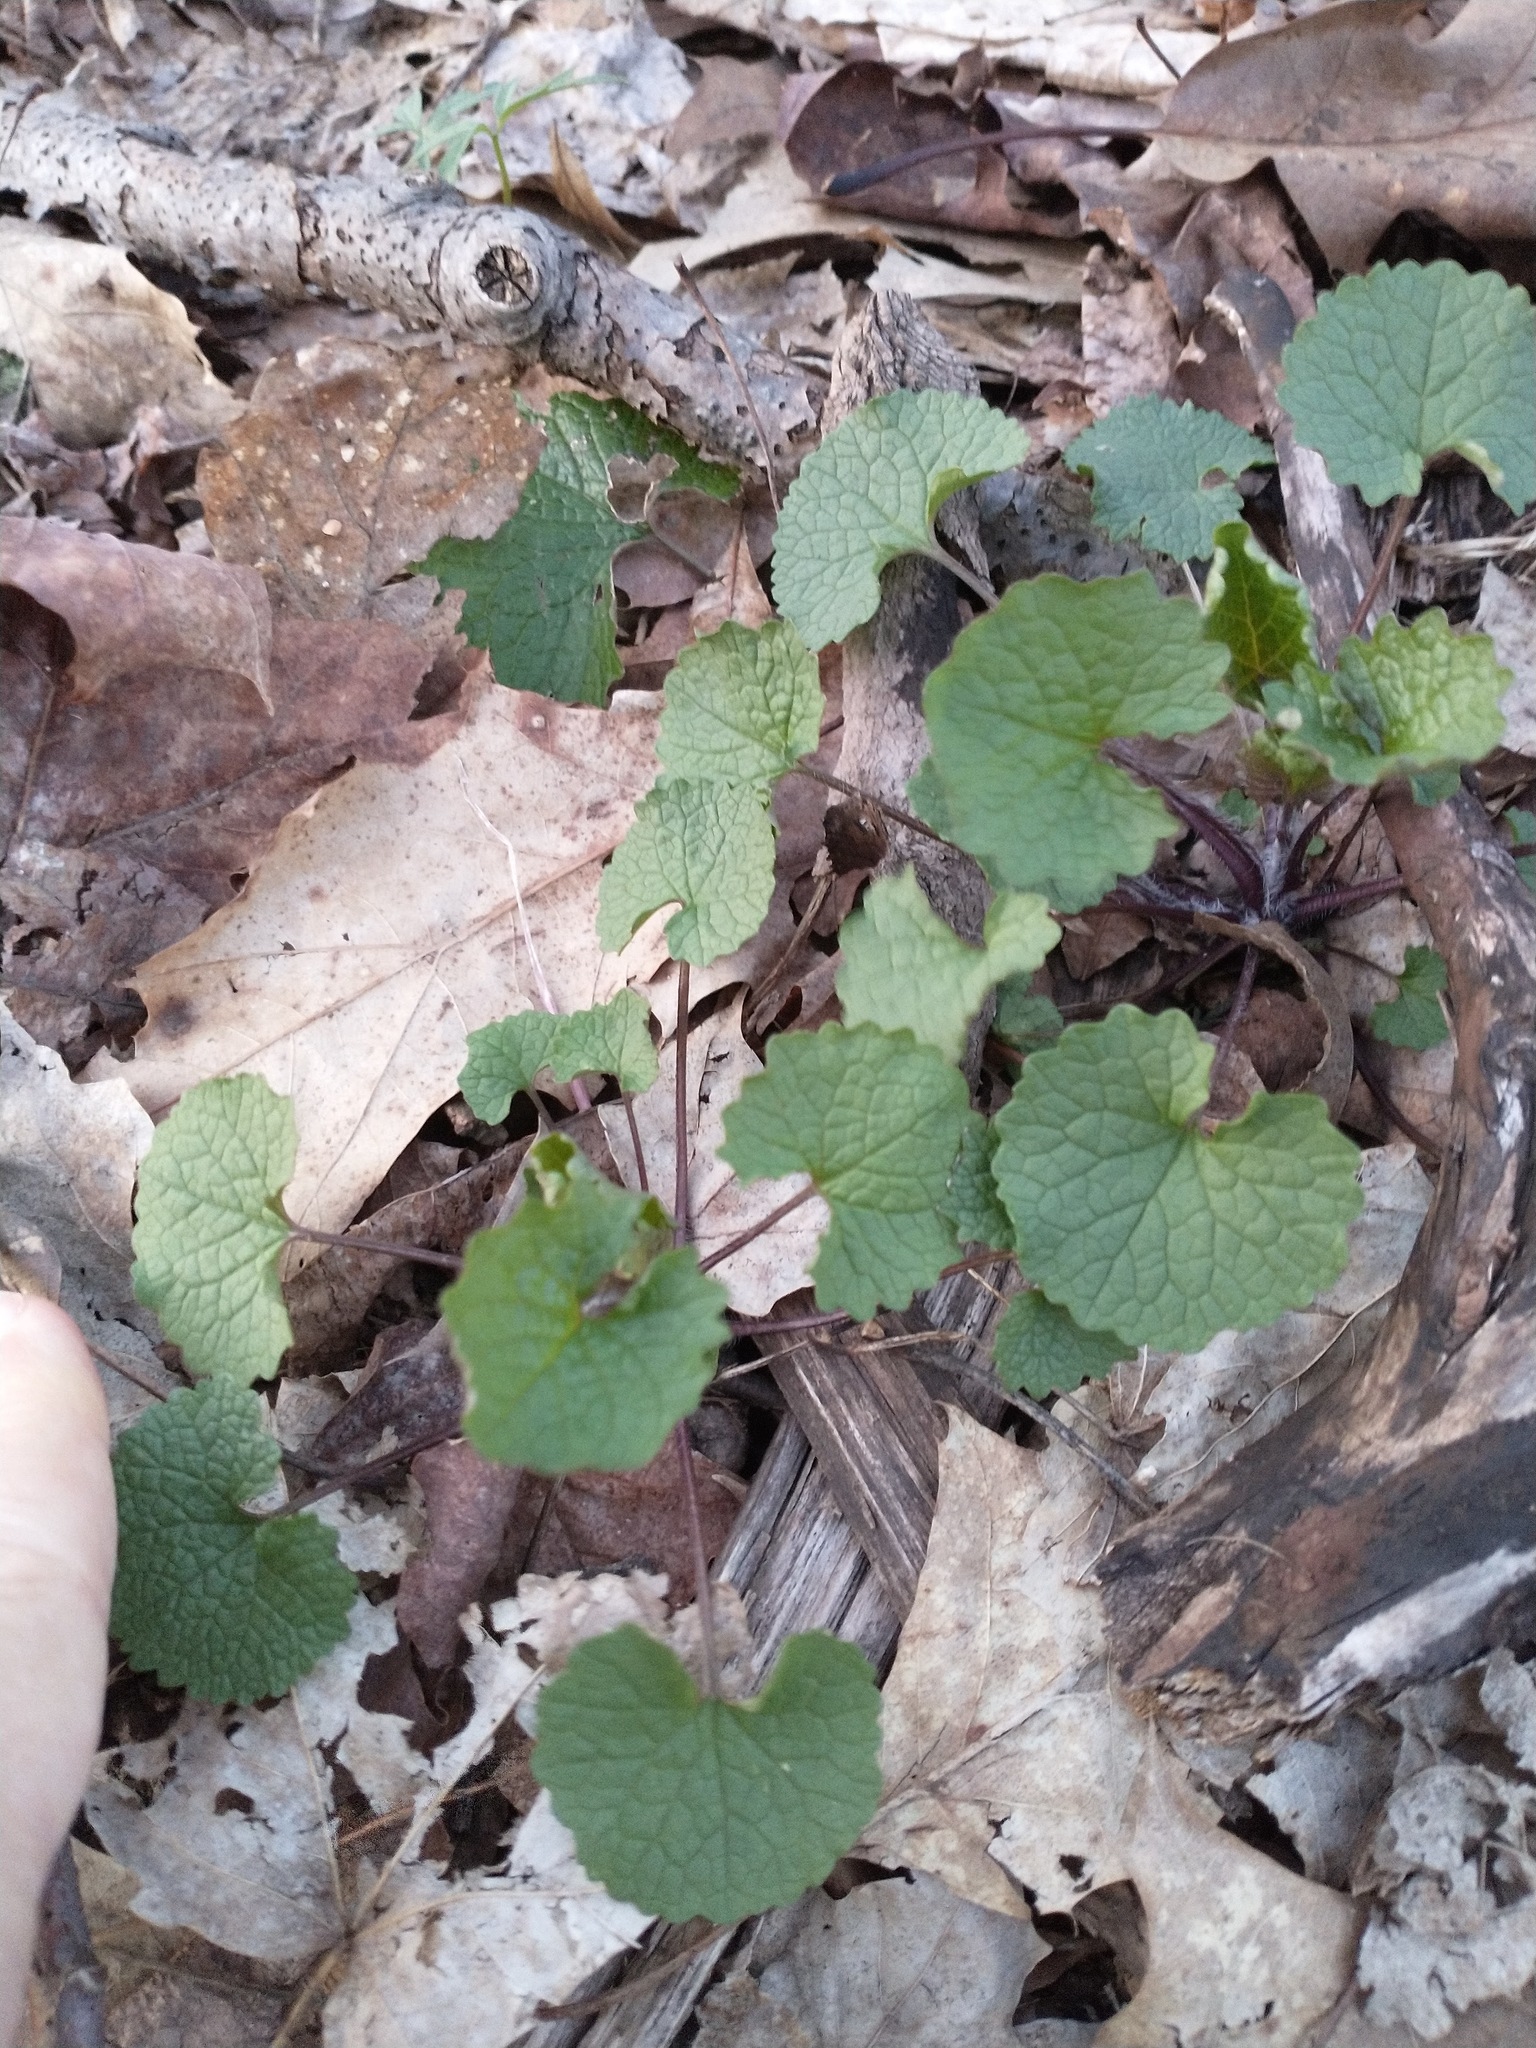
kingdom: Plantae
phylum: Tracheophyta
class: Magnoliopsida
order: Brassicales
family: Brassicaceae
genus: Alliaria
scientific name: Alliaria petiolata
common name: Garlic mustard
